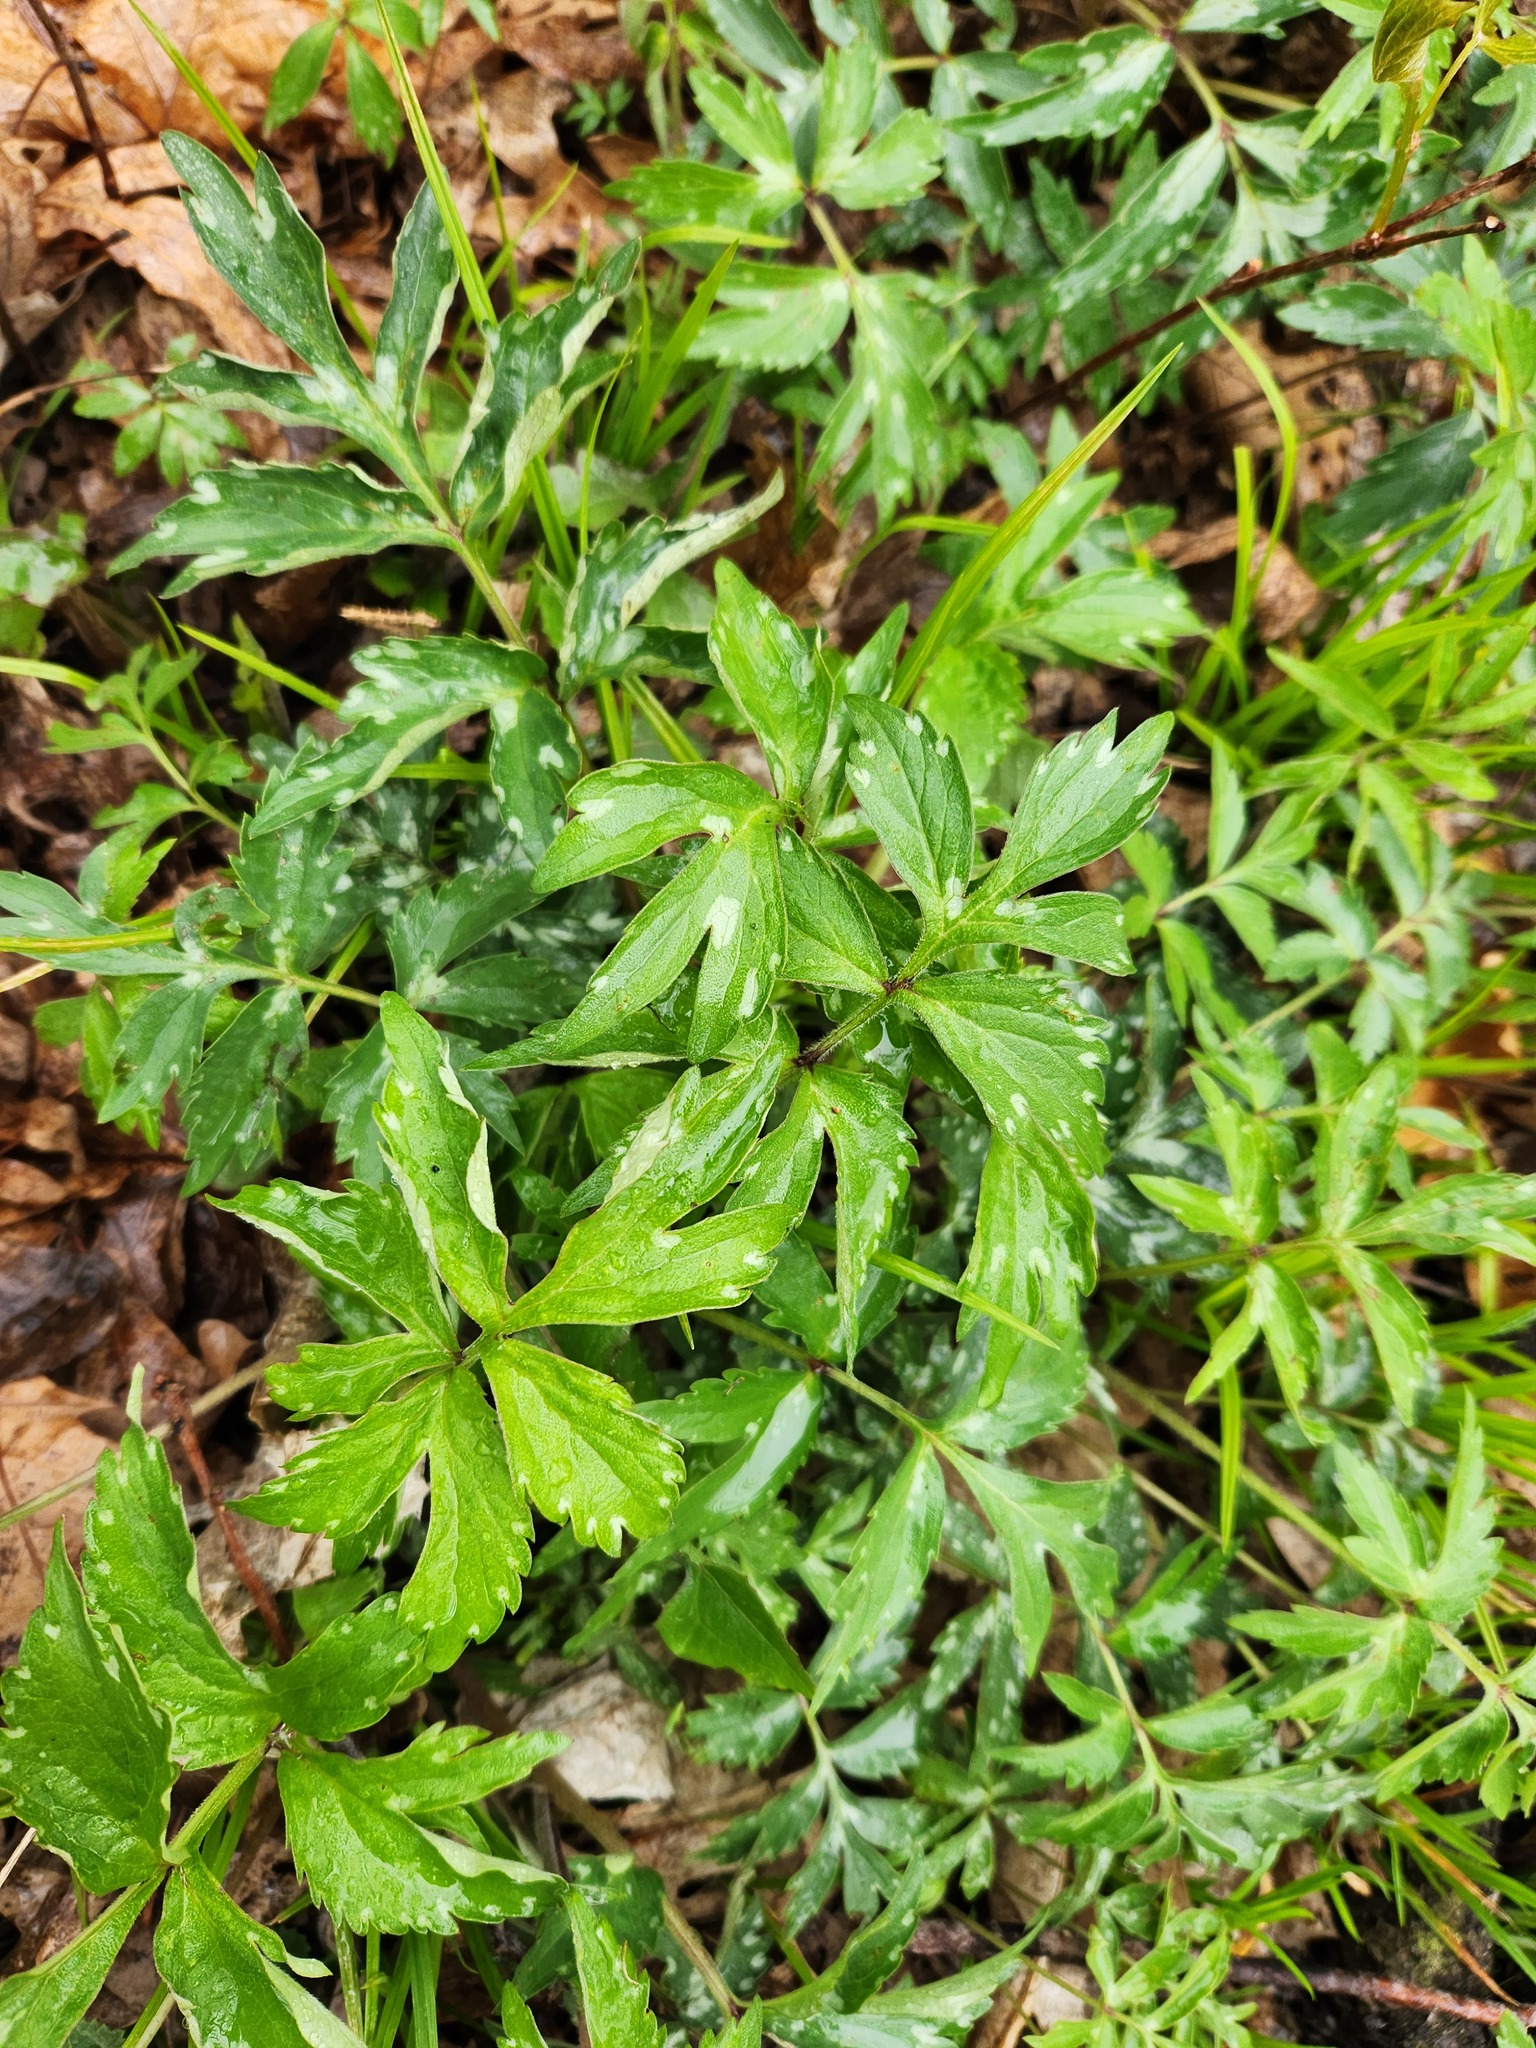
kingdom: Plantae
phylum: Tracheophyta
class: Magnoliopsida
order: Boraginales
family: Hydrophyllaceae
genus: Hydrophyllum
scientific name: Hydrophyllum virginianum
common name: Virginia waterleaf
